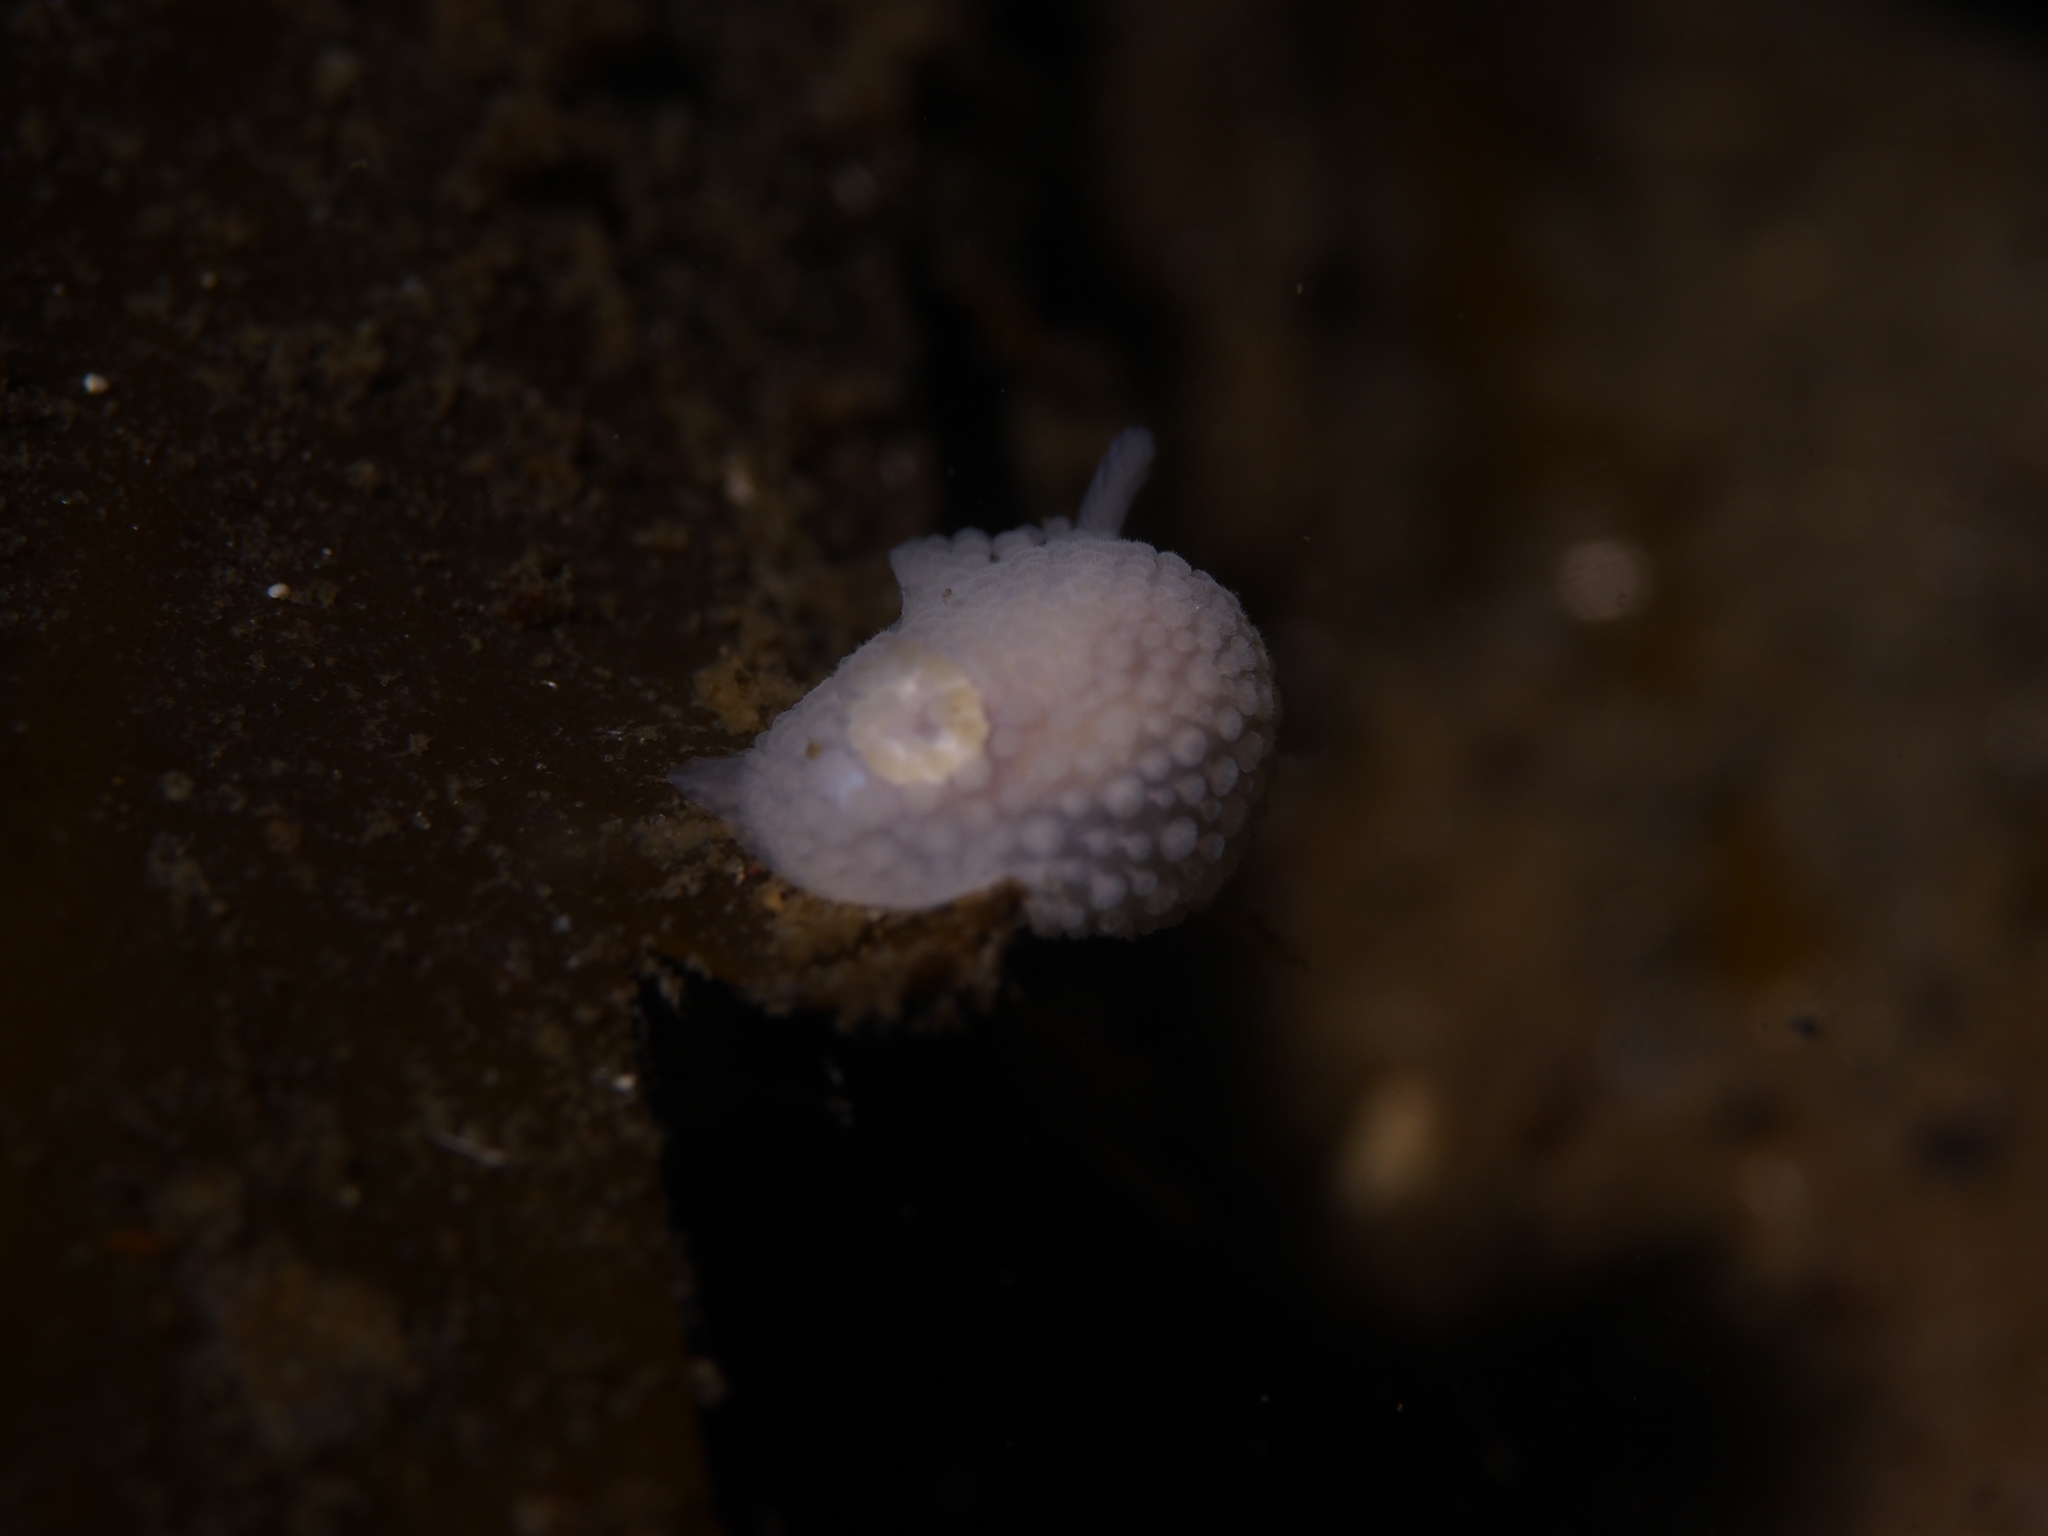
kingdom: Animalia
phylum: Mollusca
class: Gastropoda
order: Nudibranchia
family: Onchidorididae
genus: Onchidoris
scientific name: Onchidoris muricata
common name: Rough doris
